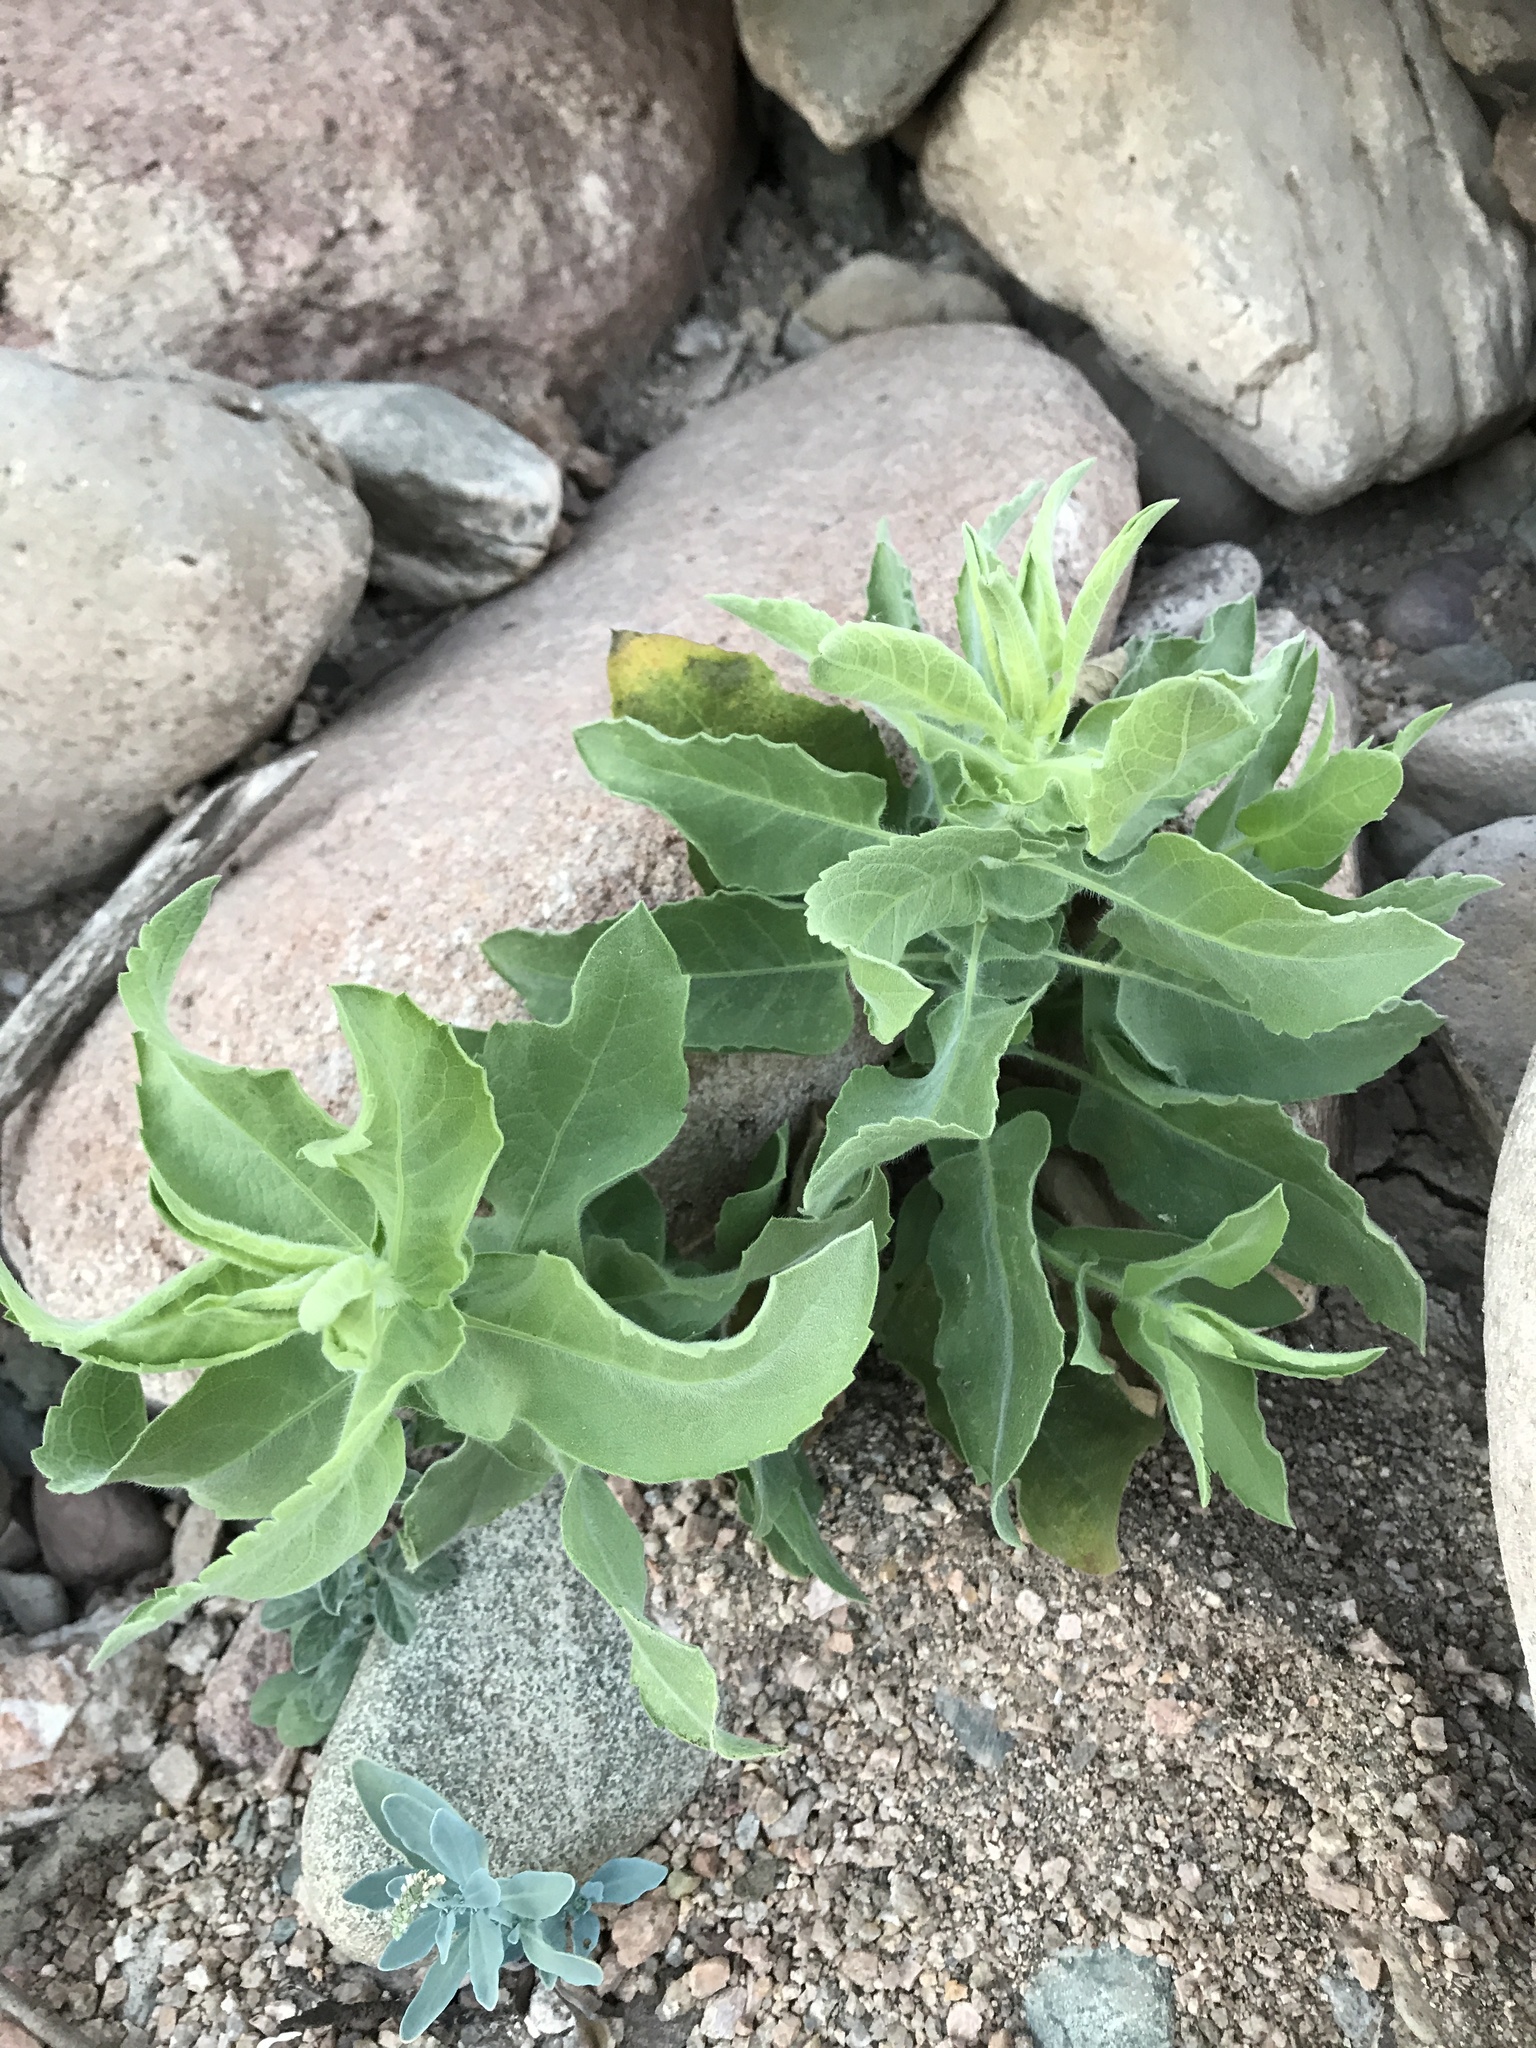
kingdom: Plantae
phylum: Tracheophyta
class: Magnoliopsida
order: Asterales
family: Asteraceae
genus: Heterotheca
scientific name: Heterotheca subaxillaris
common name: Camphorweed
